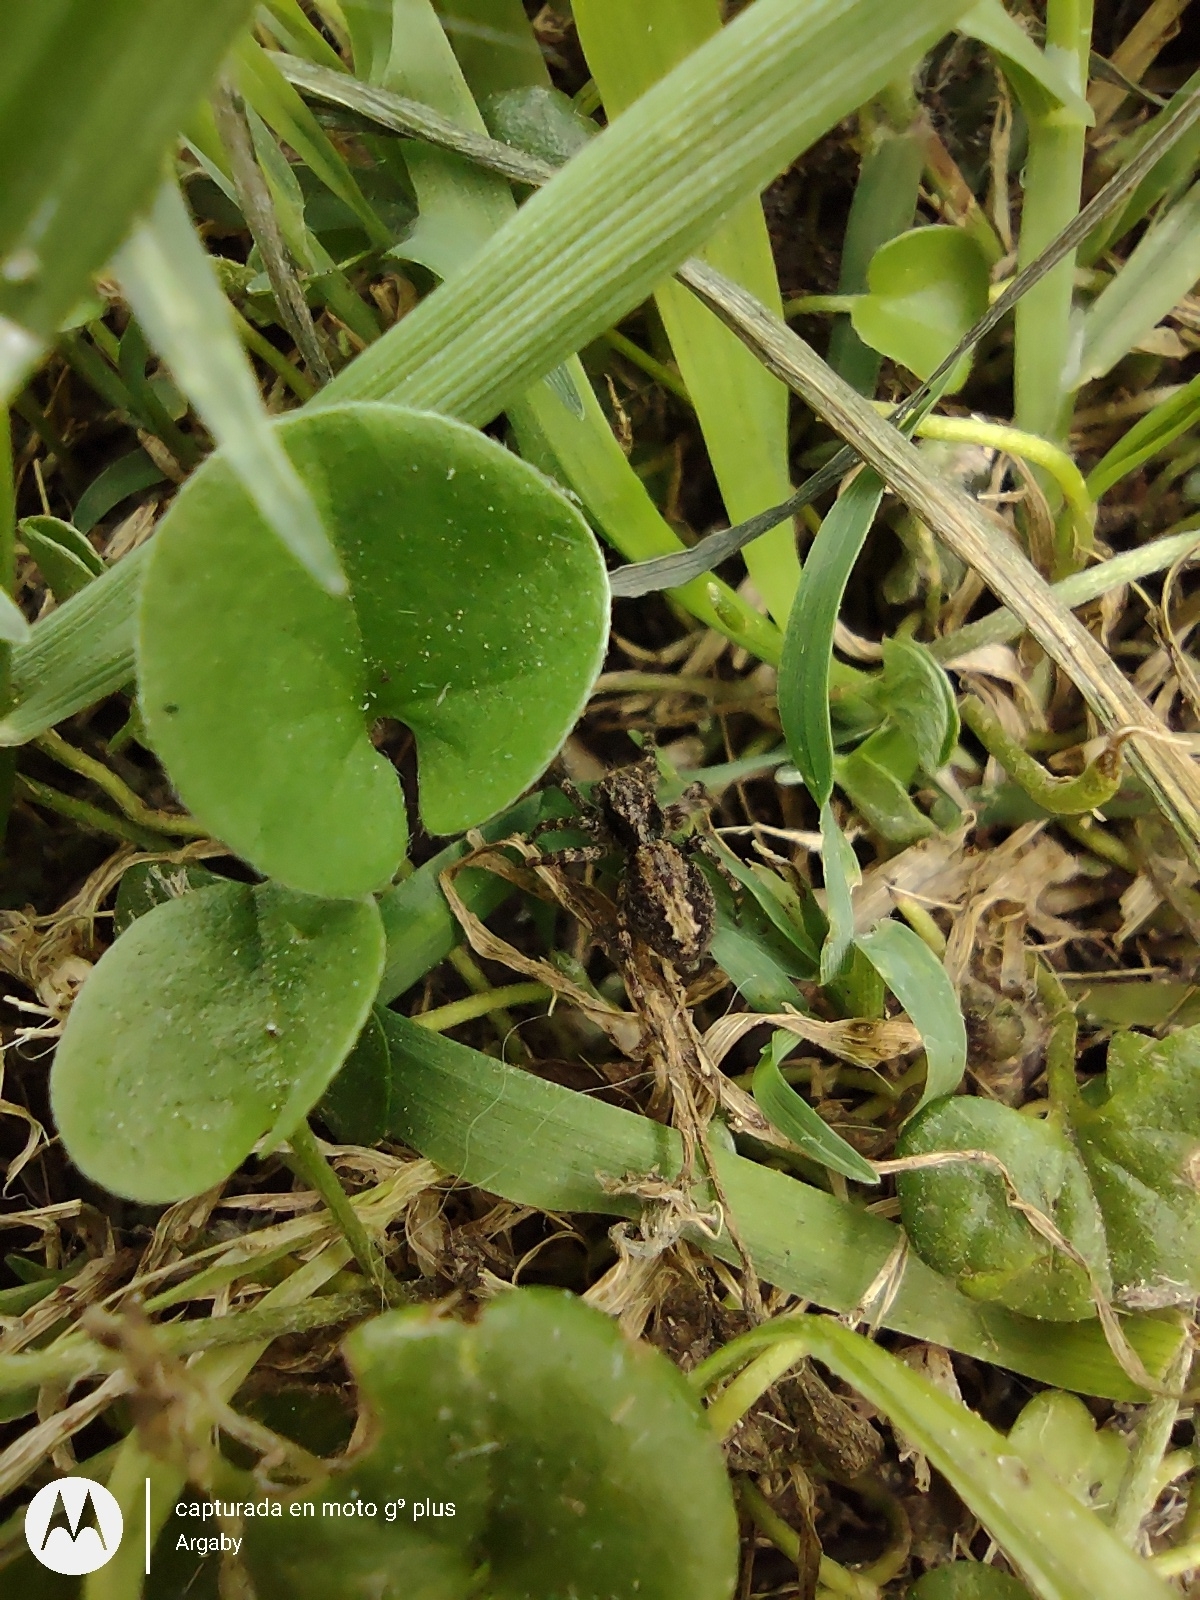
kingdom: Animalia
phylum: Arthropoda
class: Arachnida
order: Araneae
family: Salticidae
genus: Titanattus
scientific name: Titanattus andinus
